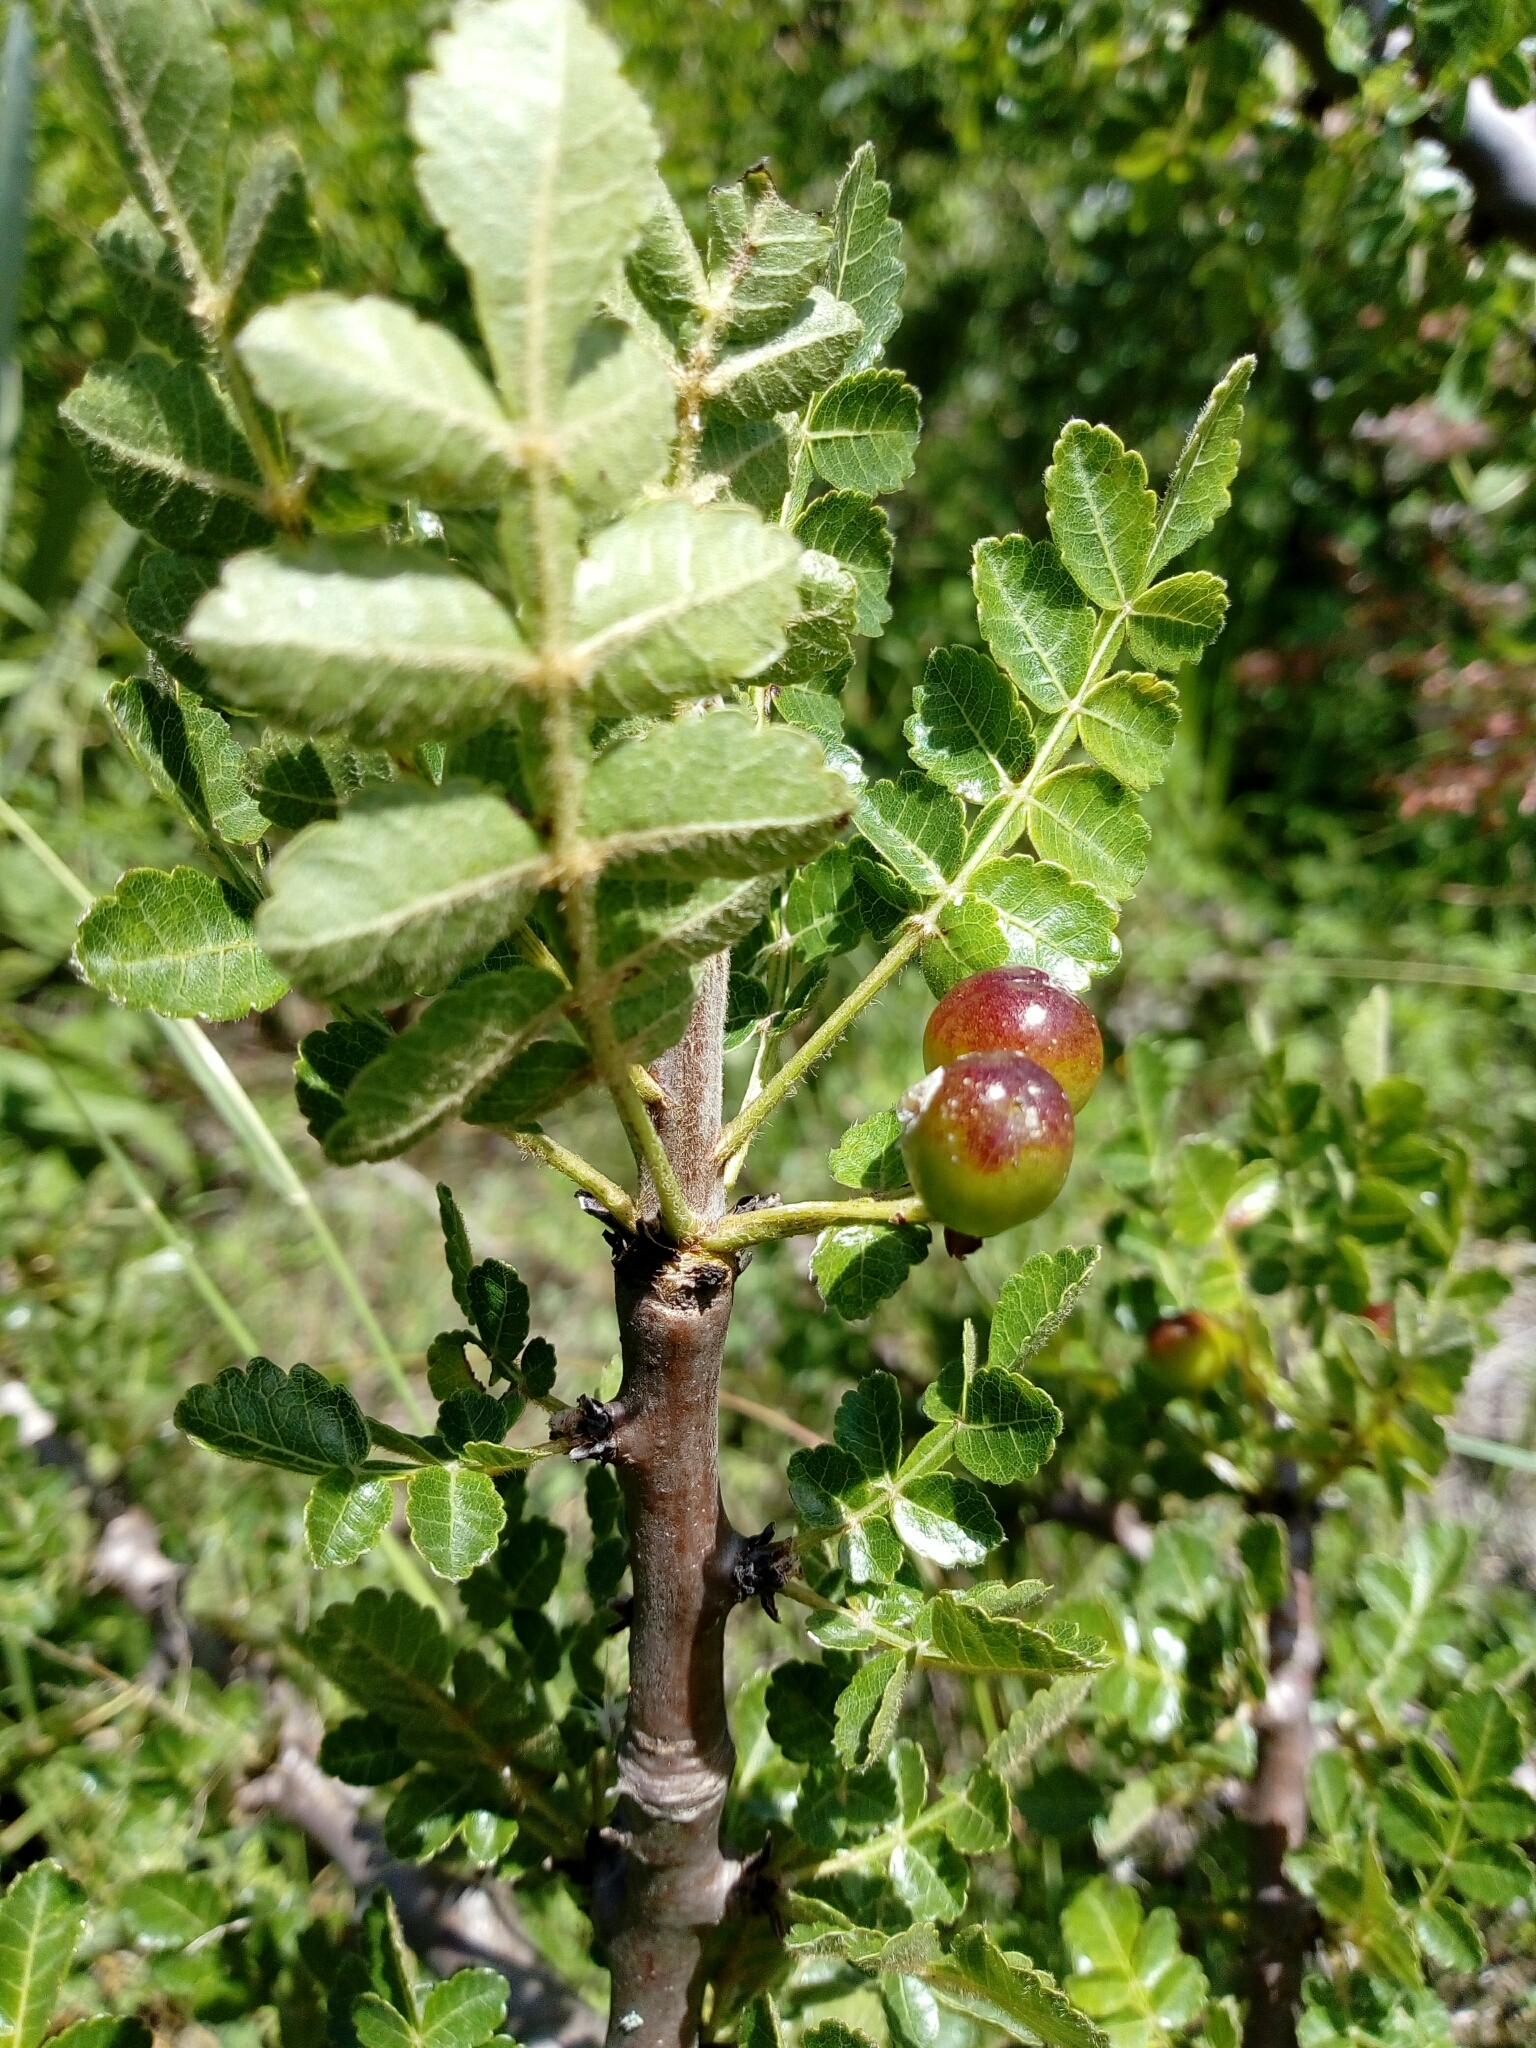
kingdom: Plantae
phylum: Tracheophyta
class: Magnoliopsida
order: Sapindales
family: Burseraceae
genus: Bursera
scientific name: Bursera linanoe
